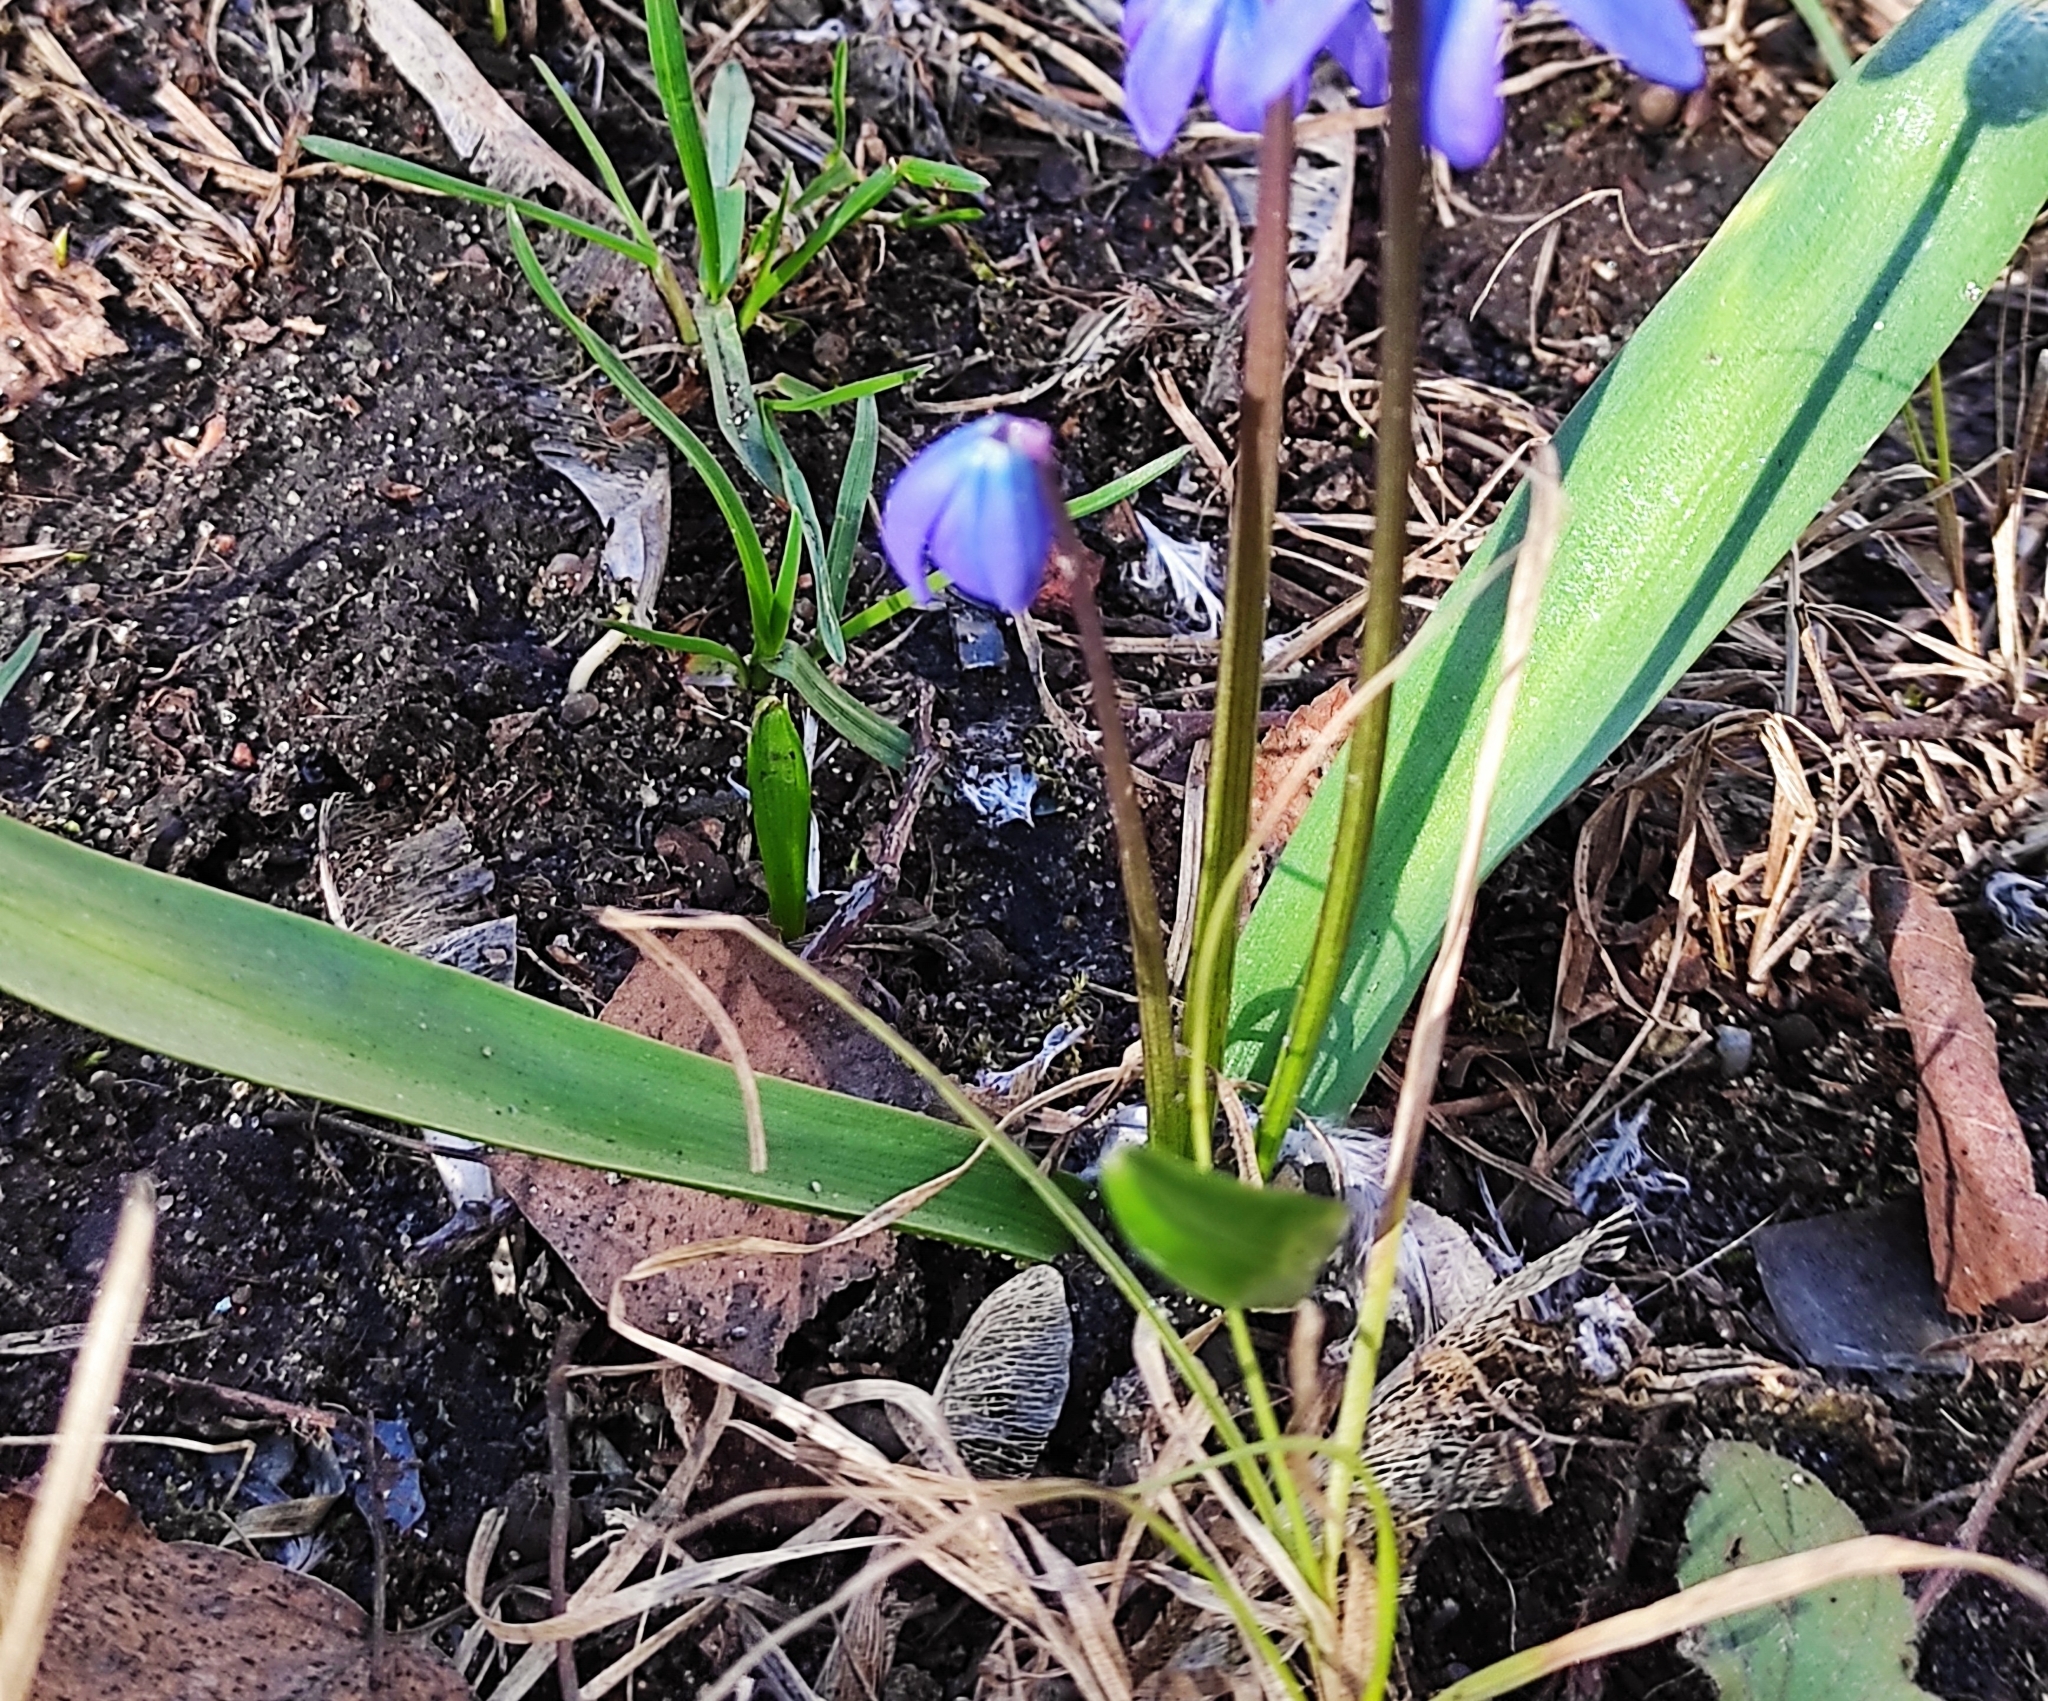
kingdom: Plantae
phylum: Tracheophyta
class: Liliopsida
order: Asparagales
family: Asparagaceae
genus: Scilla
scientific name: Scilla siberica
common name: Siberian squill
